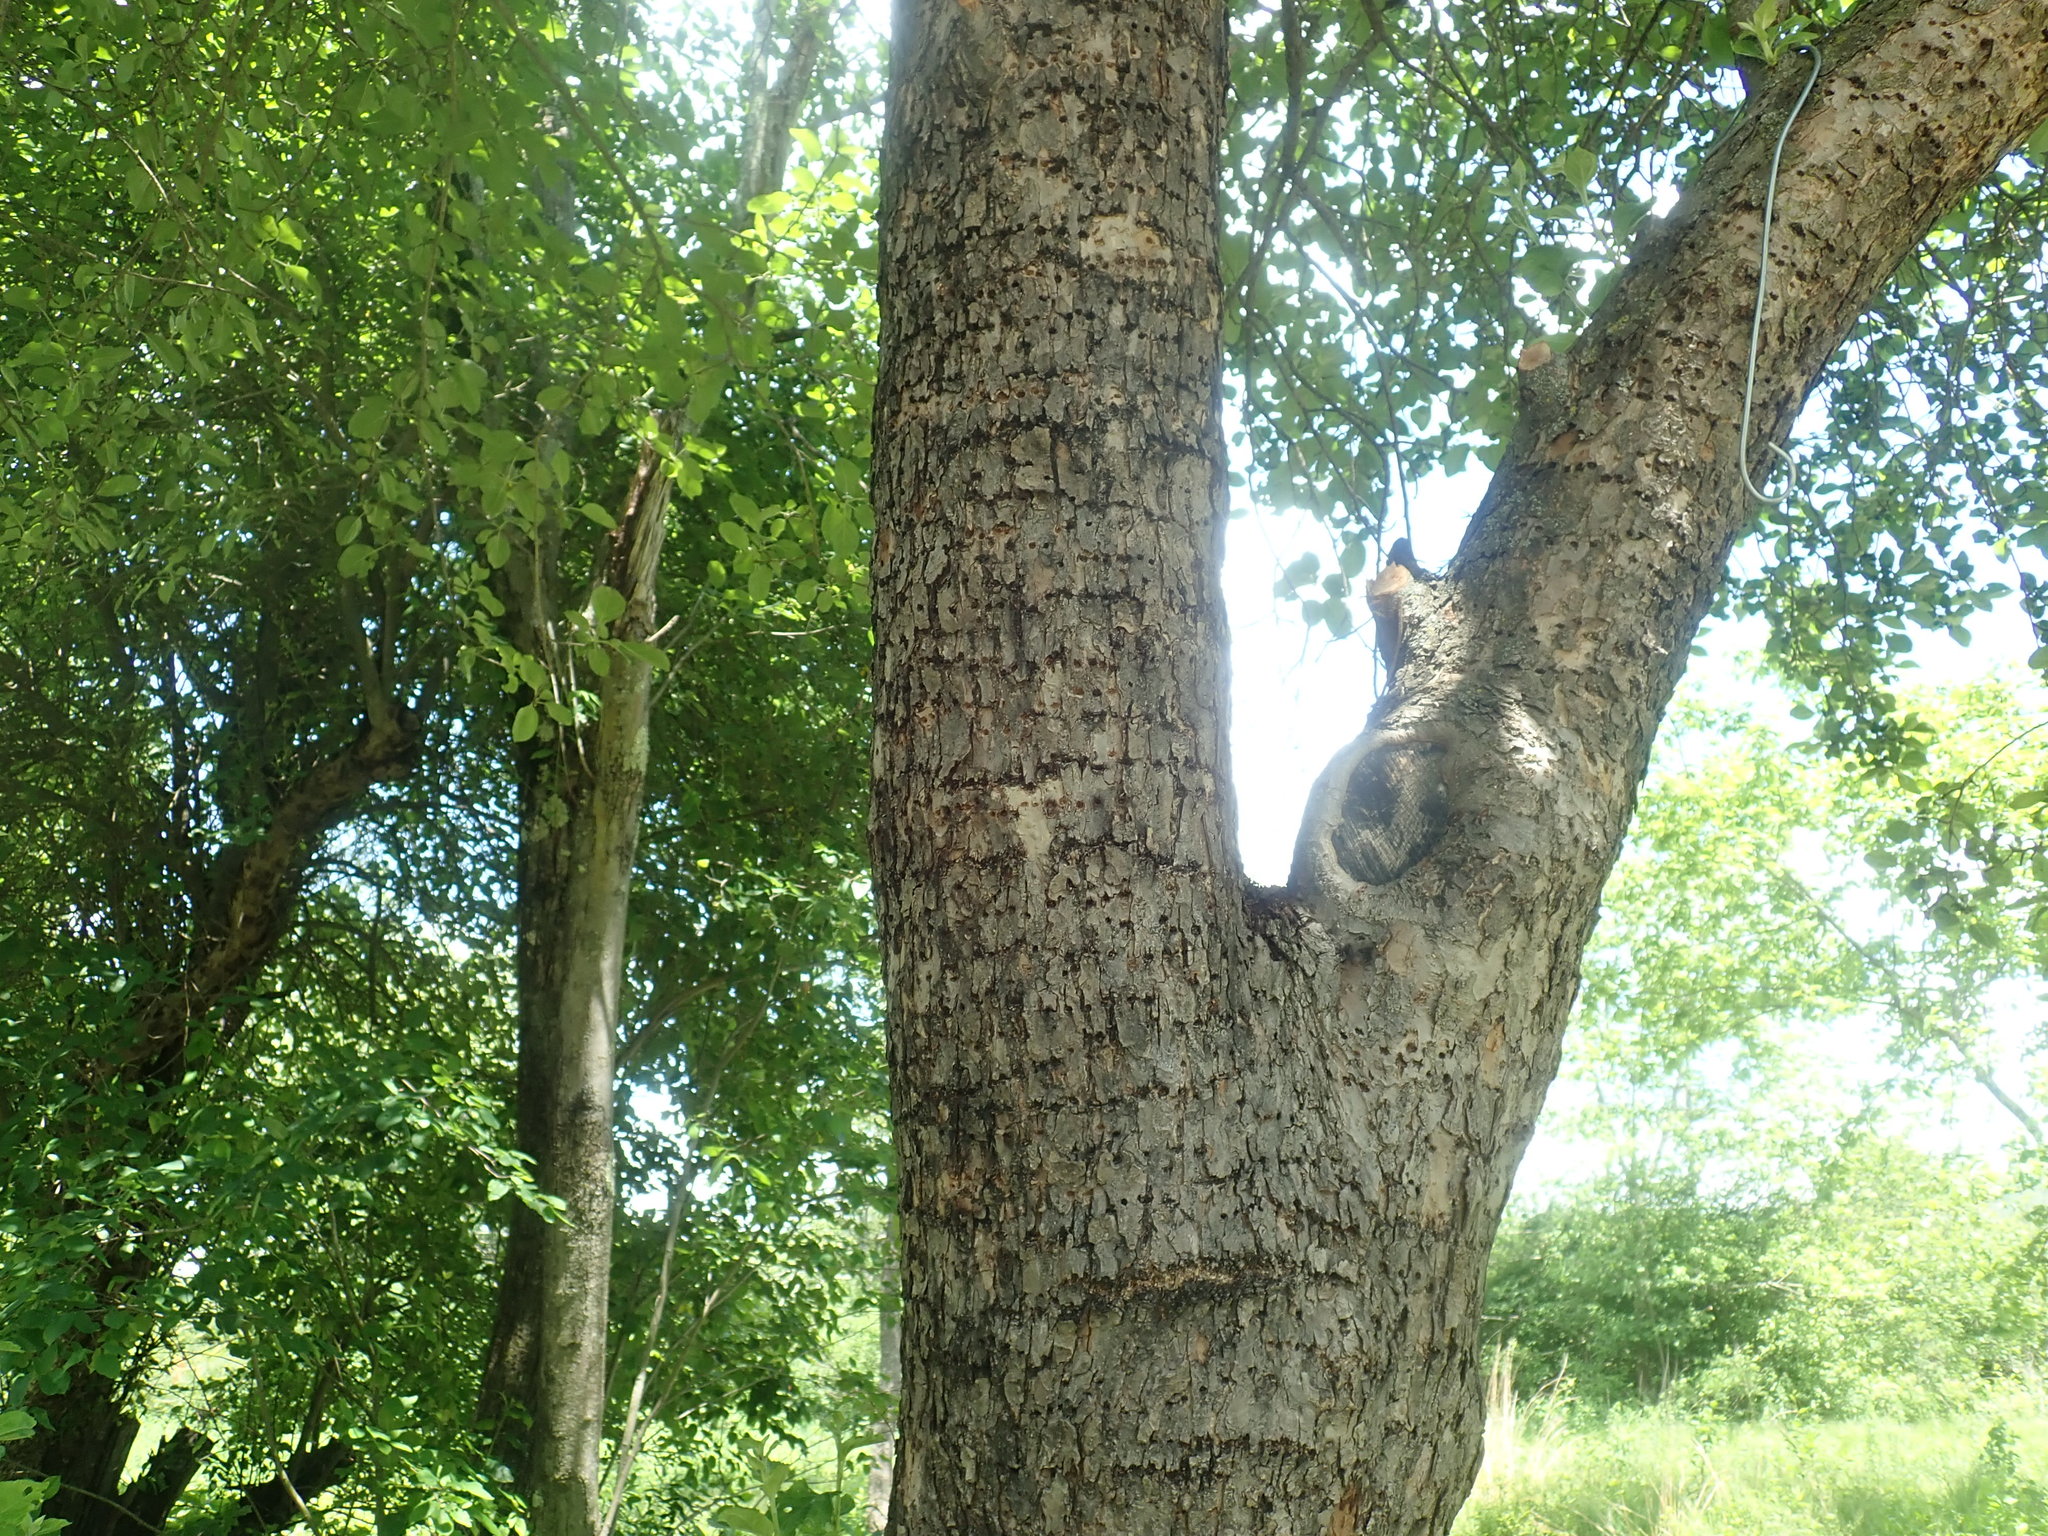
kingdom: Animalia
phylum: Chordata
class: Aves
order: Piciformes
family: Picidae
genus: Sphyrapicus
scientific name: Sphyrapicus varius
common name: Yellow-bellied sapsucker
